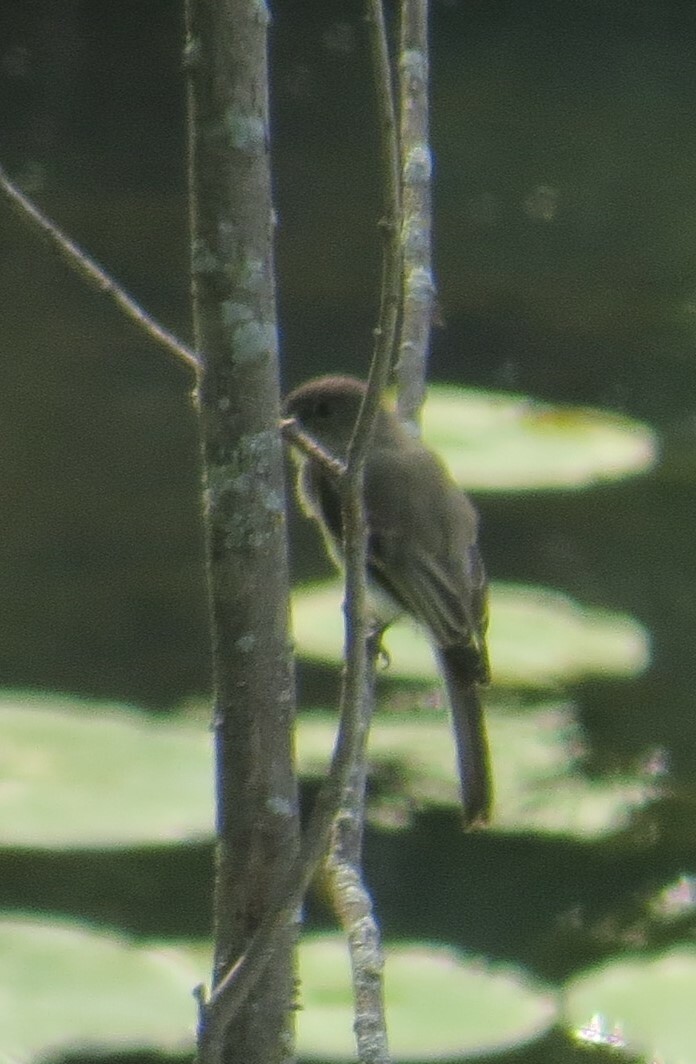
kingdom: Animalia
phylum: Chordata
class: Aves
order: Passeriformes
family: Tyrannidae
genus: Sayornis
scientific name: Sayornis phoebe
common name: Eastern phoebe
